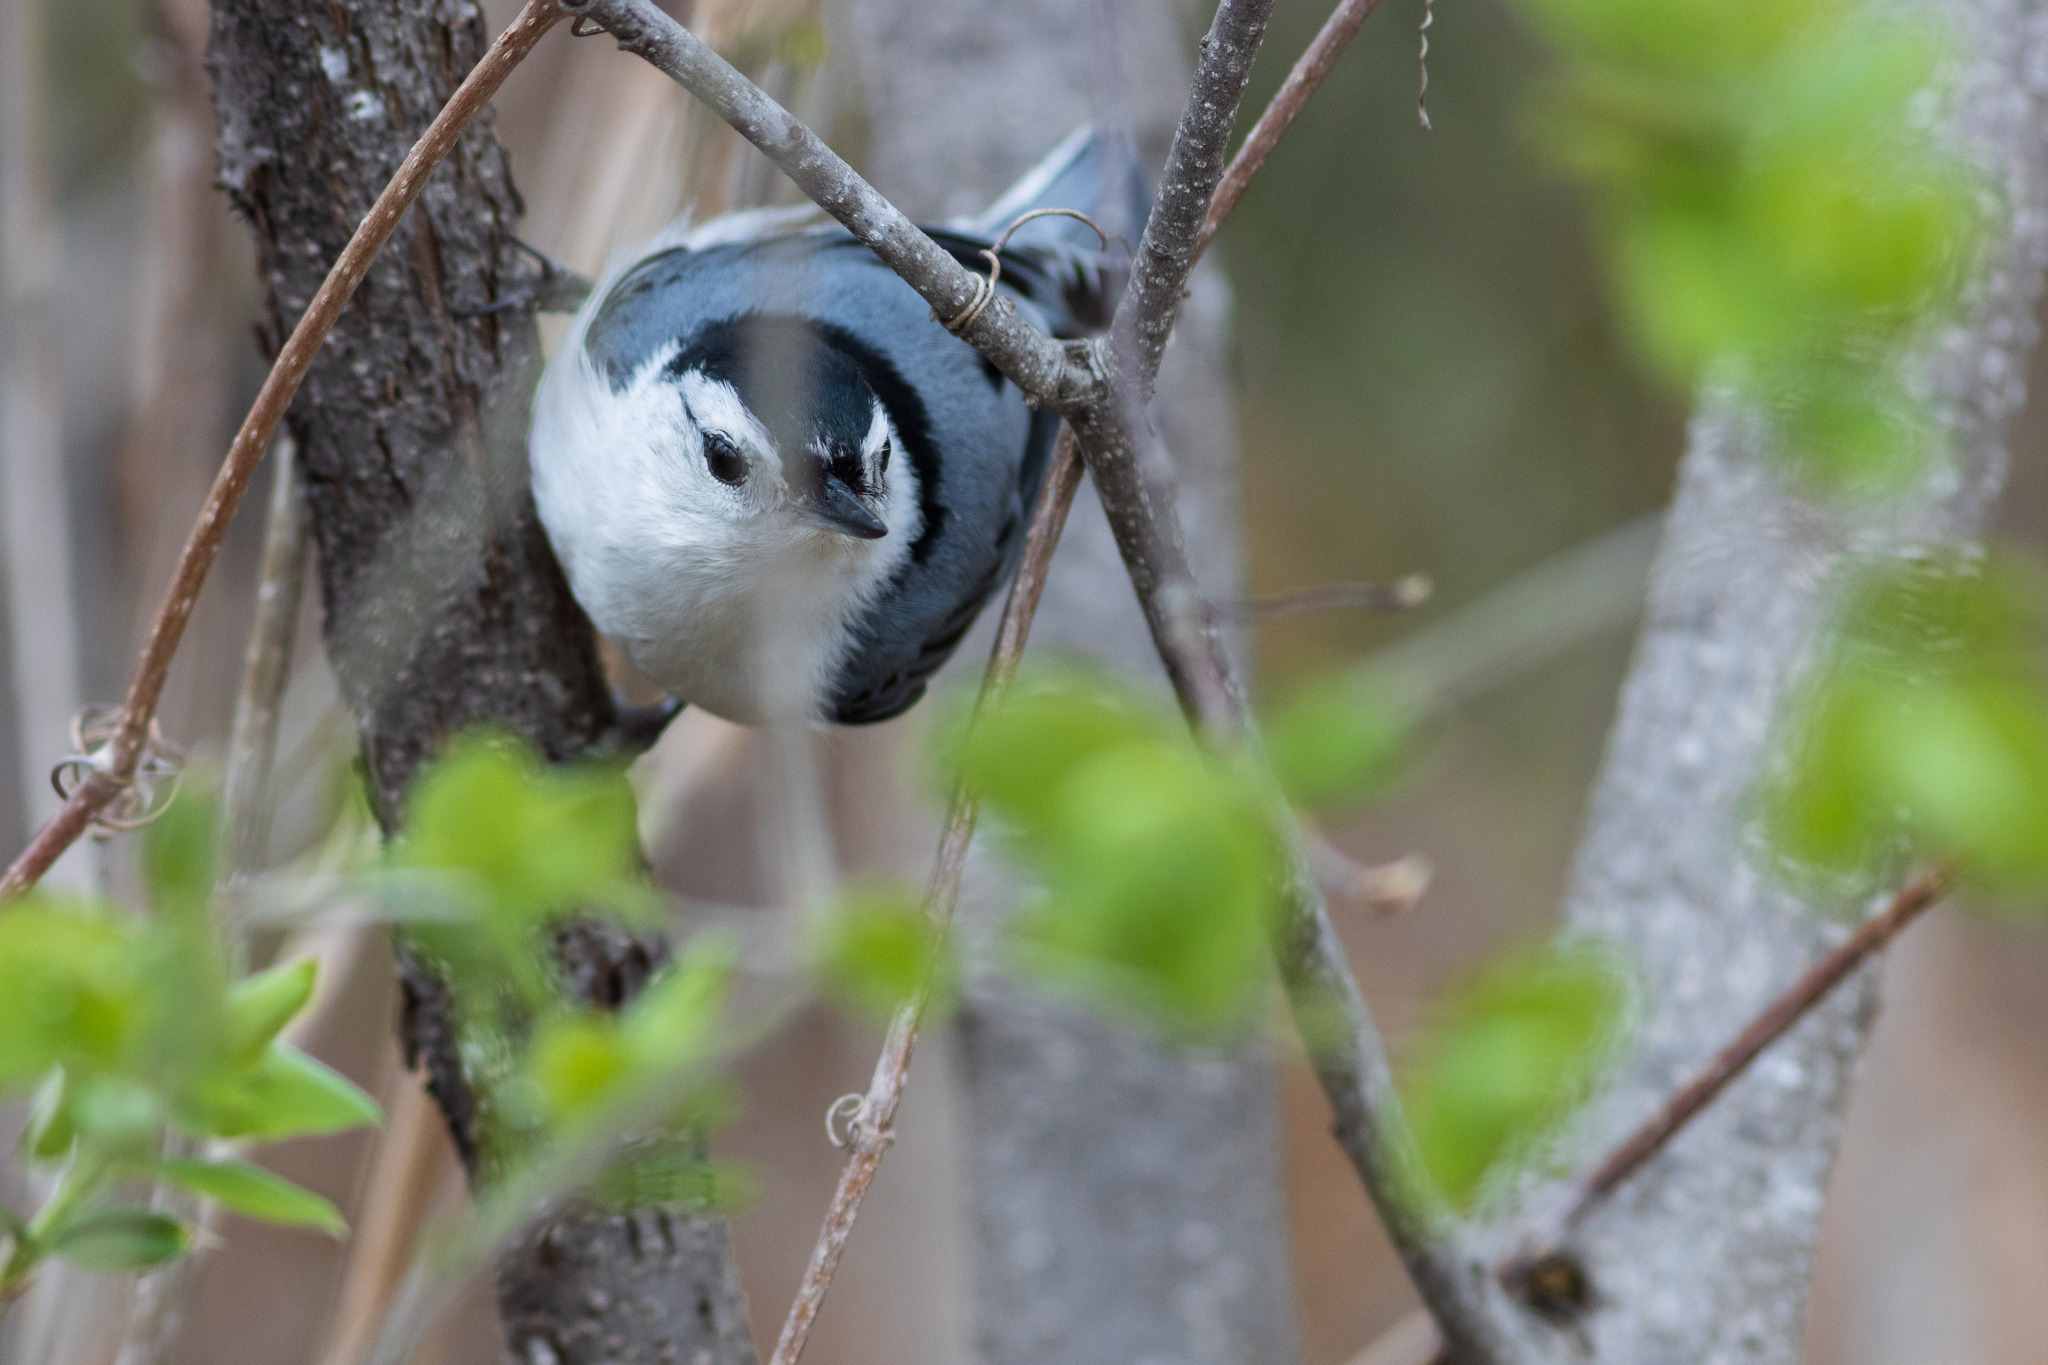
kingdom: Animalia
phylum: Chordata
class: Aves
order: Passeriformes
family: Sittidae
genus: Sitta
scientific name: Sitta carolinensis
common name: White-breasted nuthatch
